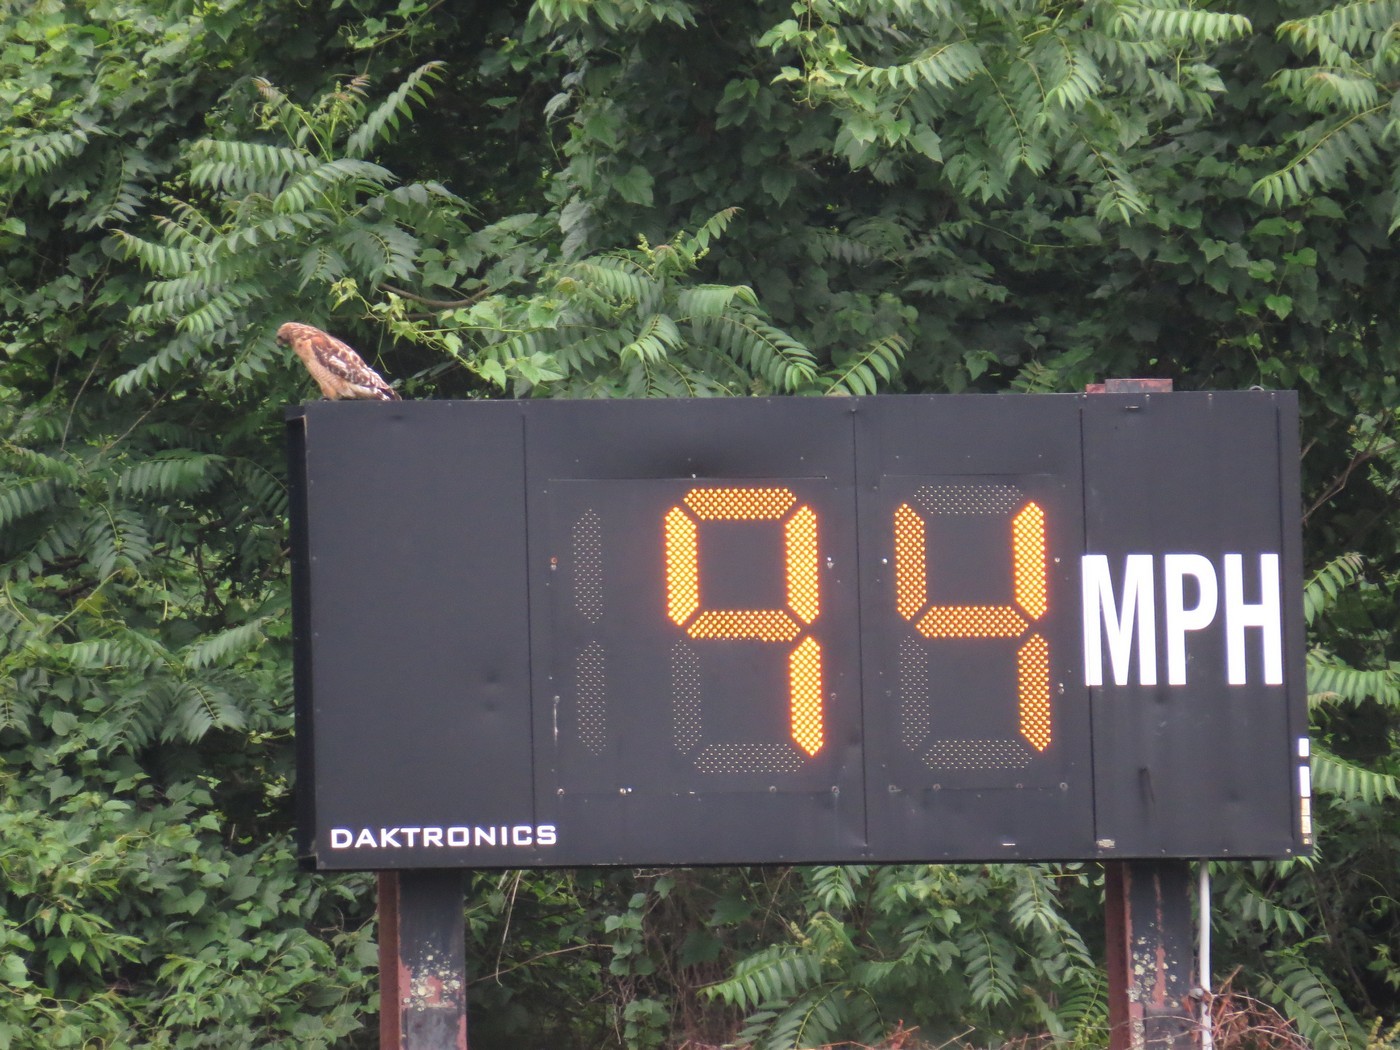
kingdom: Animalia
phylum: Chordata
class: Aves
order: Accipitriformes
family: Accipitridae
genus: Buteo
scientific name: Buteo lineatus
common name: Red-shouldered hawk
